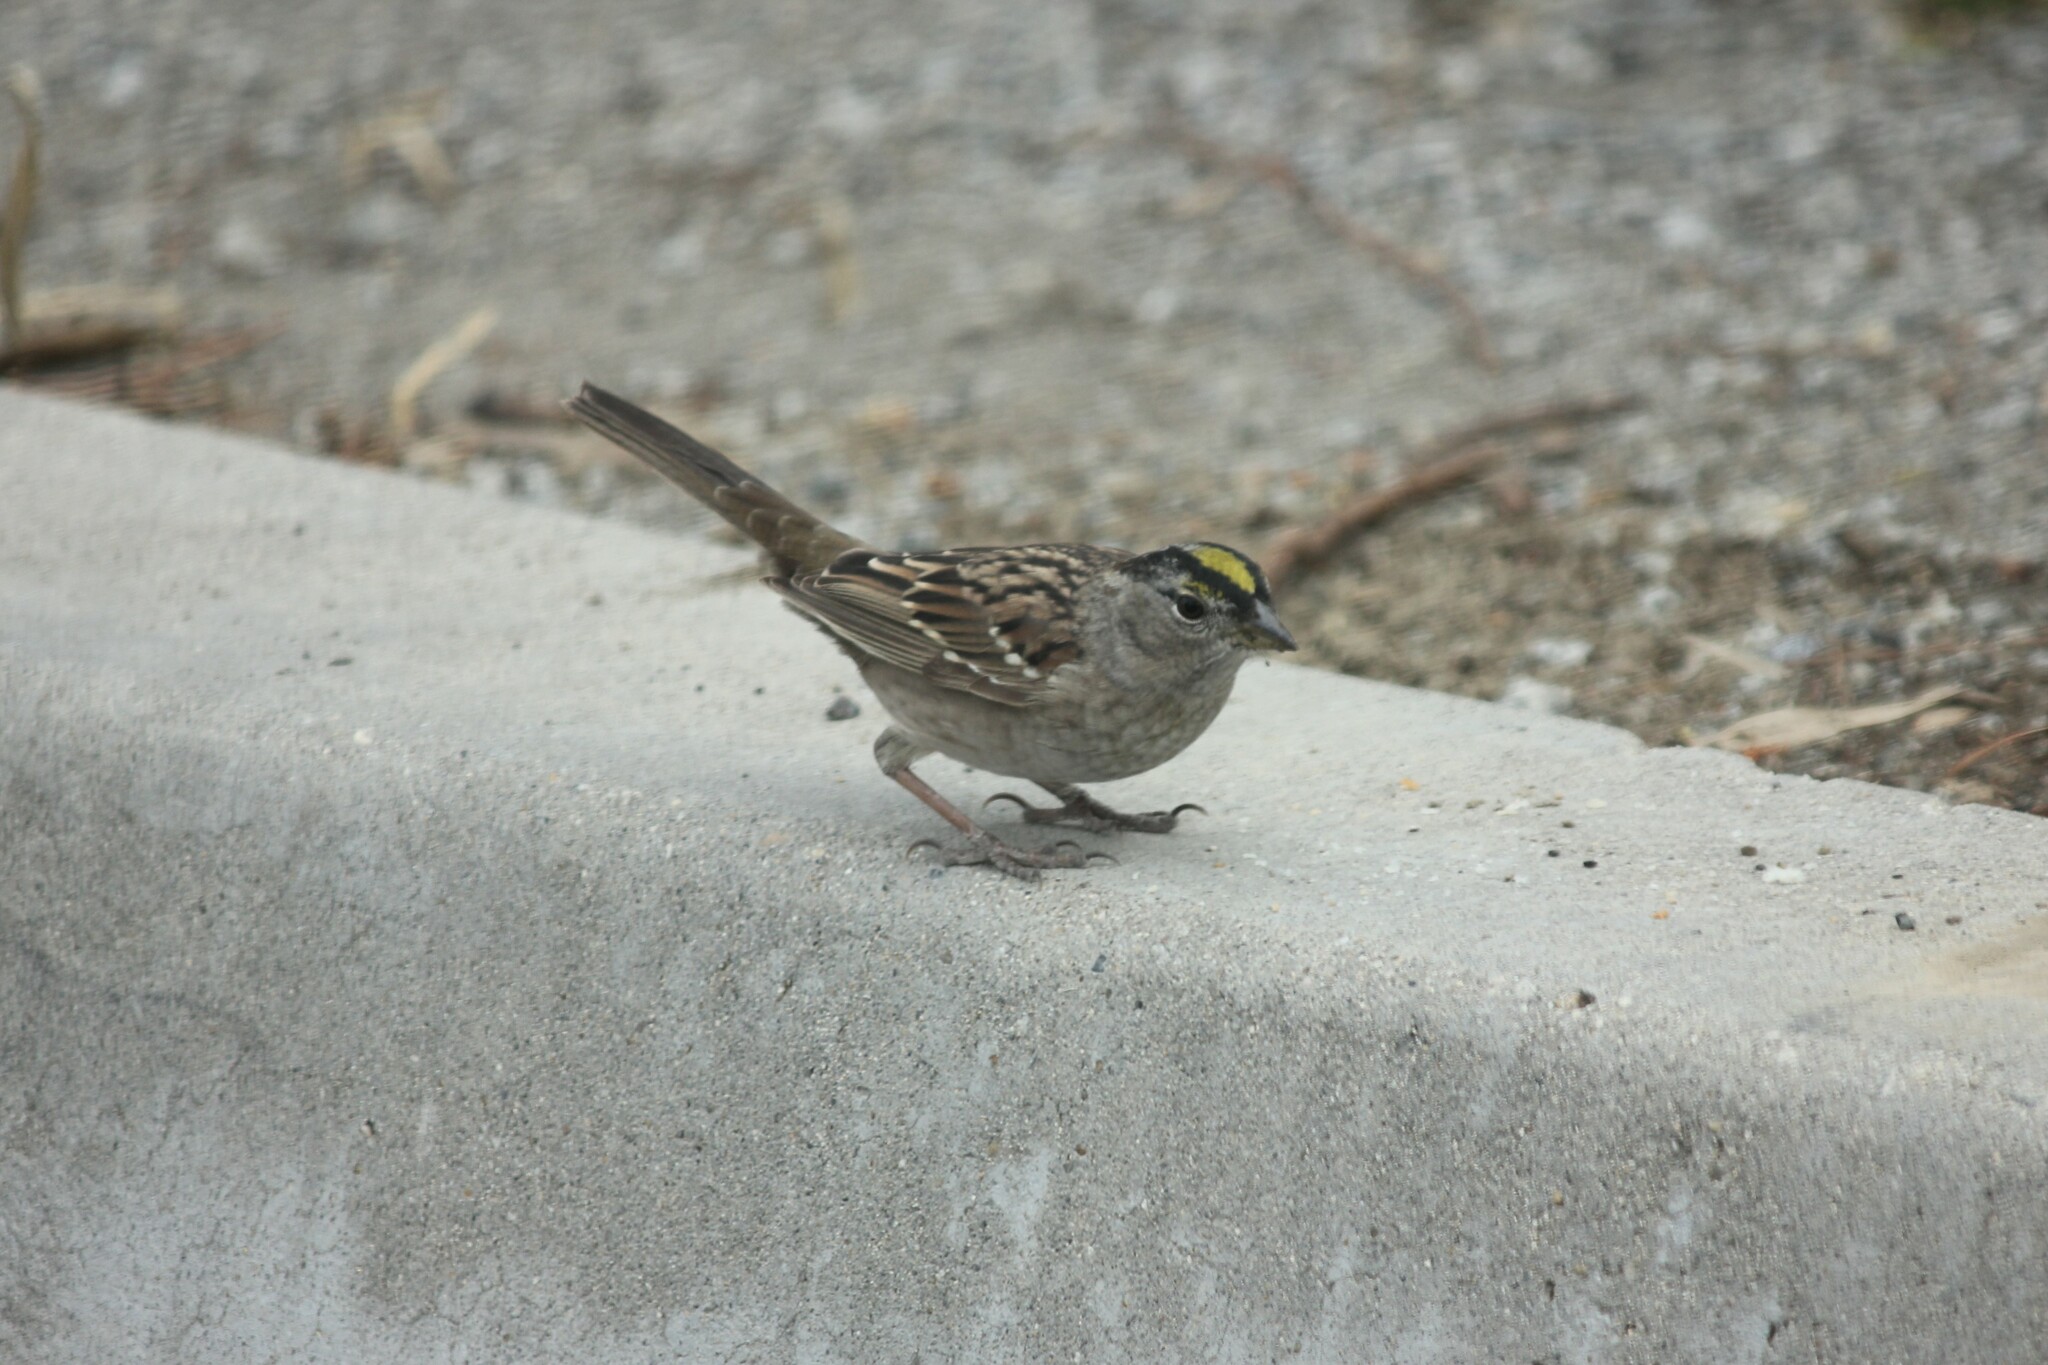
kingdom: Animalia
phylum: Chordata
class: Aves
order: Passeriformes
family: Passerellidae
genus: Zonotrichia
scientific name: Zonotrichia atricapilla
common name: Golden-crowned sparrow
